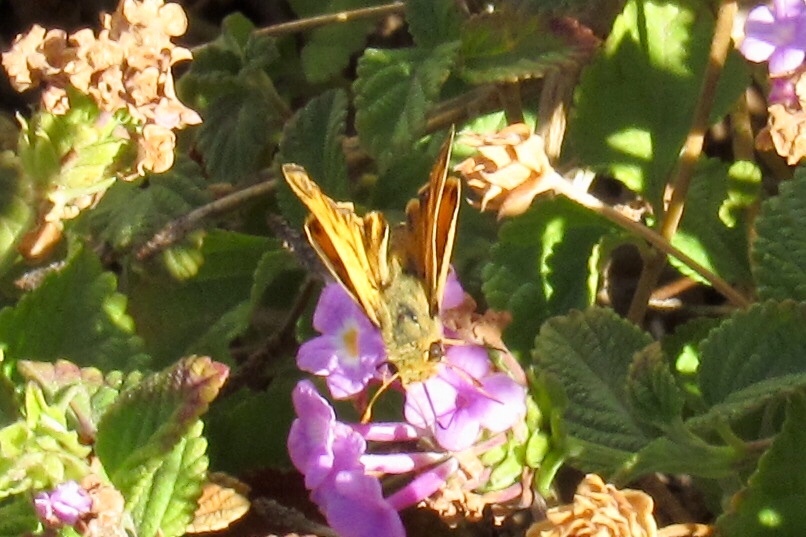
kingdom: Animalia
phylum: Arthropoda
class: Insecta
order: Lepidoptera
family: Hesperiidae
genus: Hylephila
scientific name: Hylephila phyleus
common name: Fiery skipper
